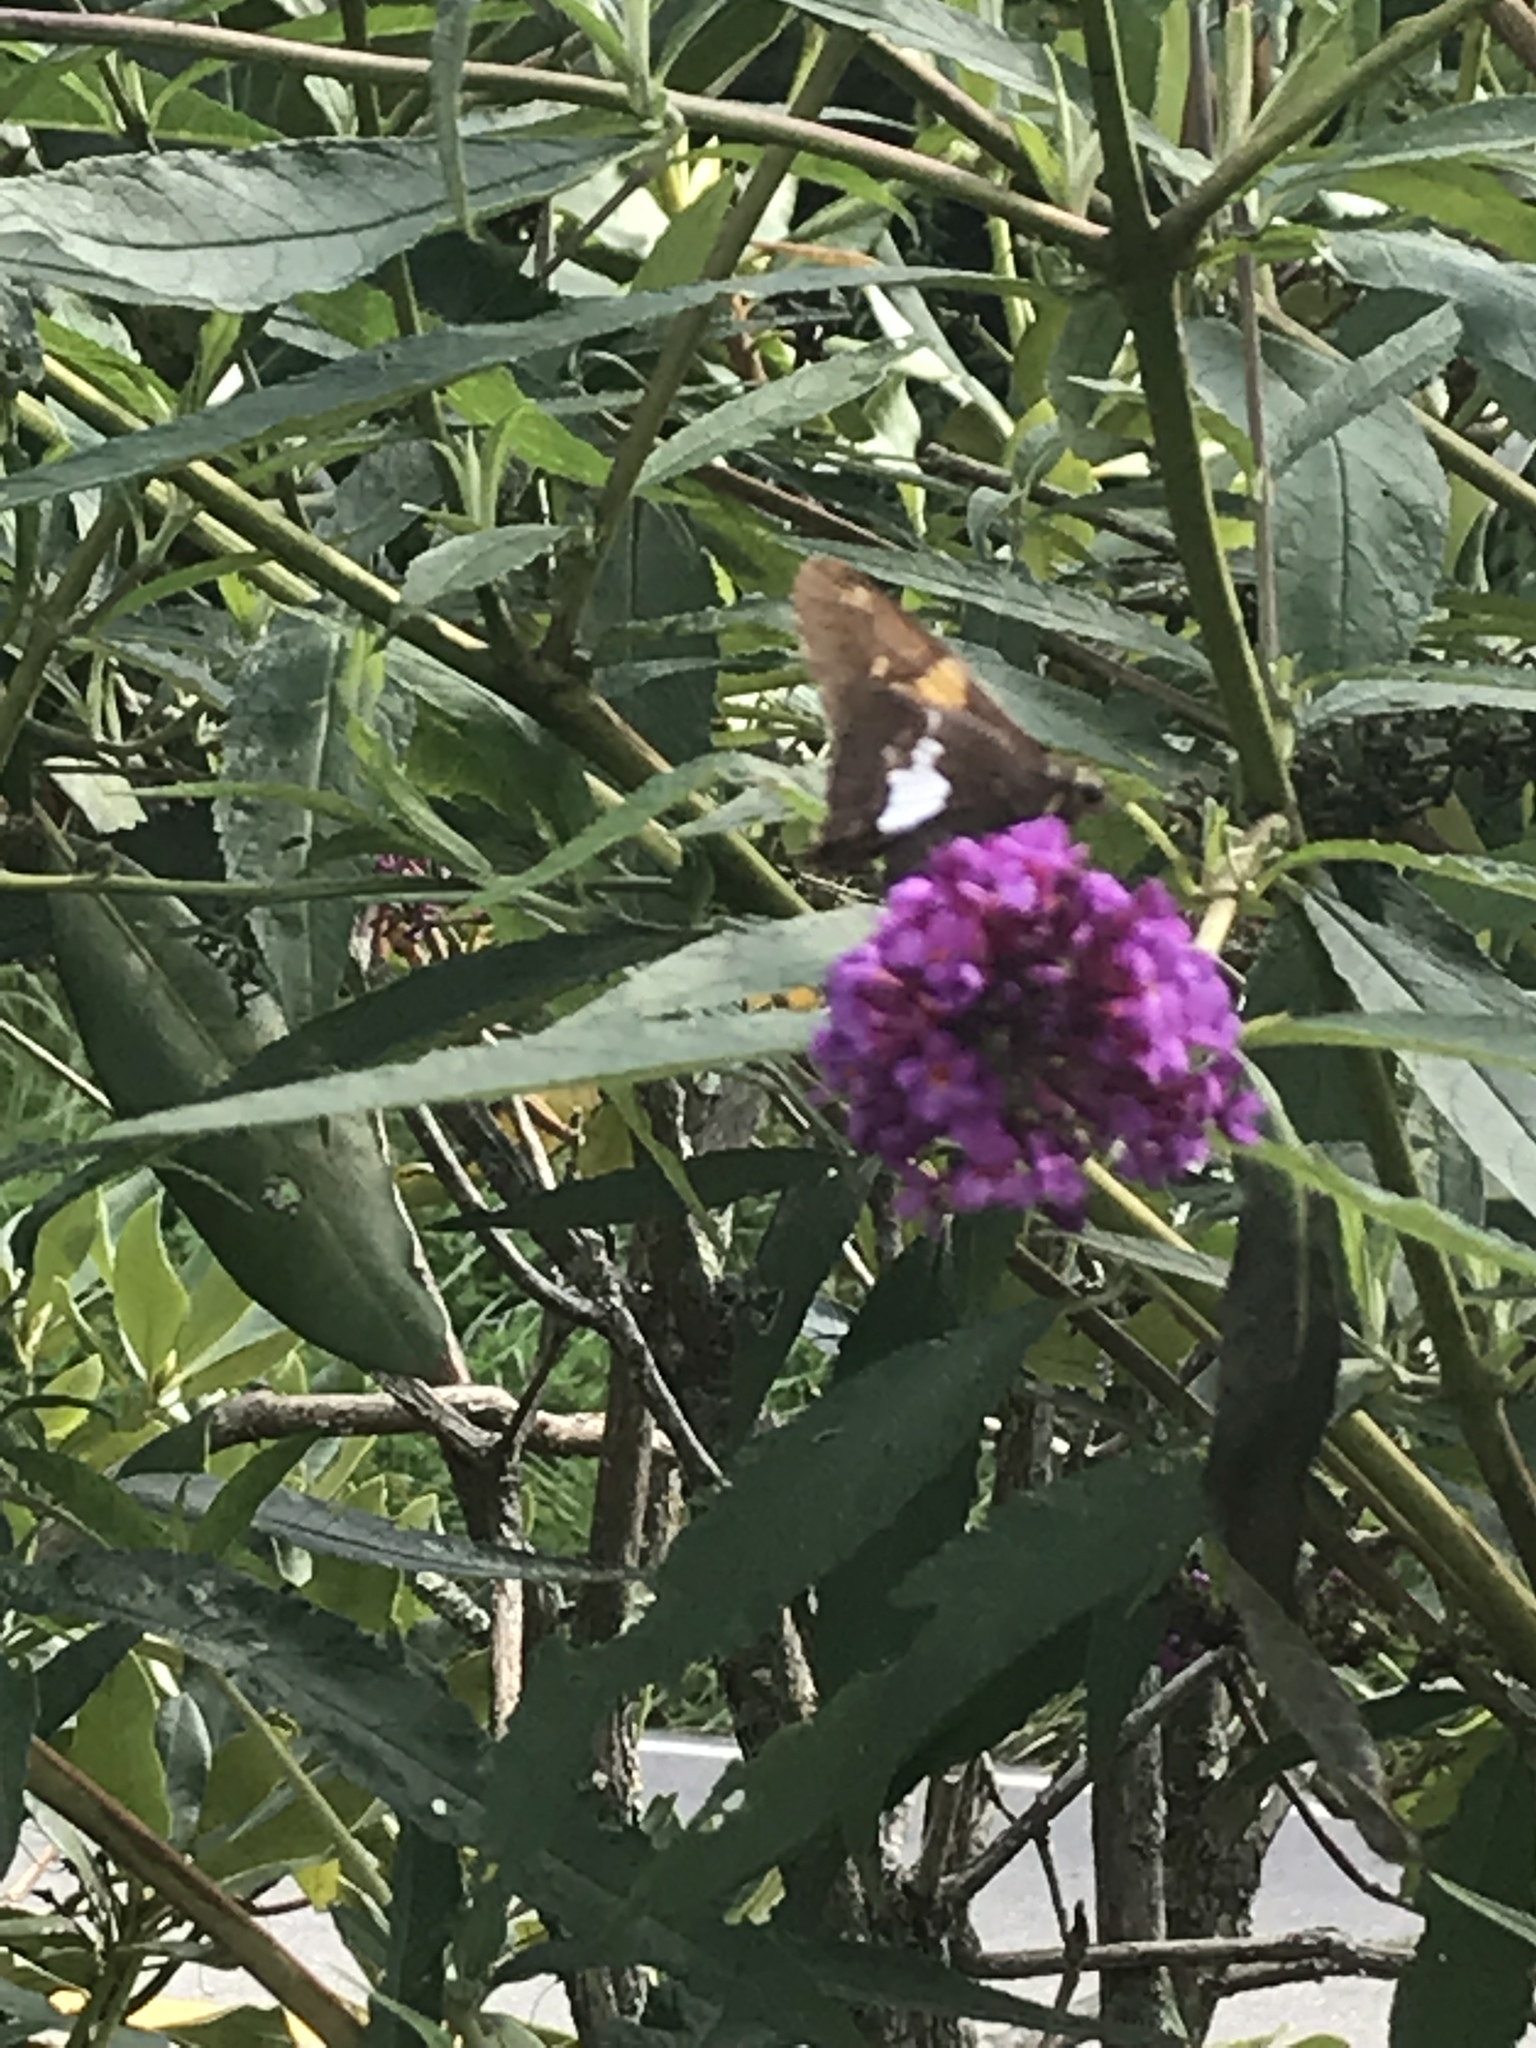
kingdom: Animalia
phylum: Arthropoda
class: Insecta
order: Lepidoptera
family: Hesperiidae
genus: Epargyreus
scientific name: Epargyreus clarus
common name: Silver-spotted skipper
